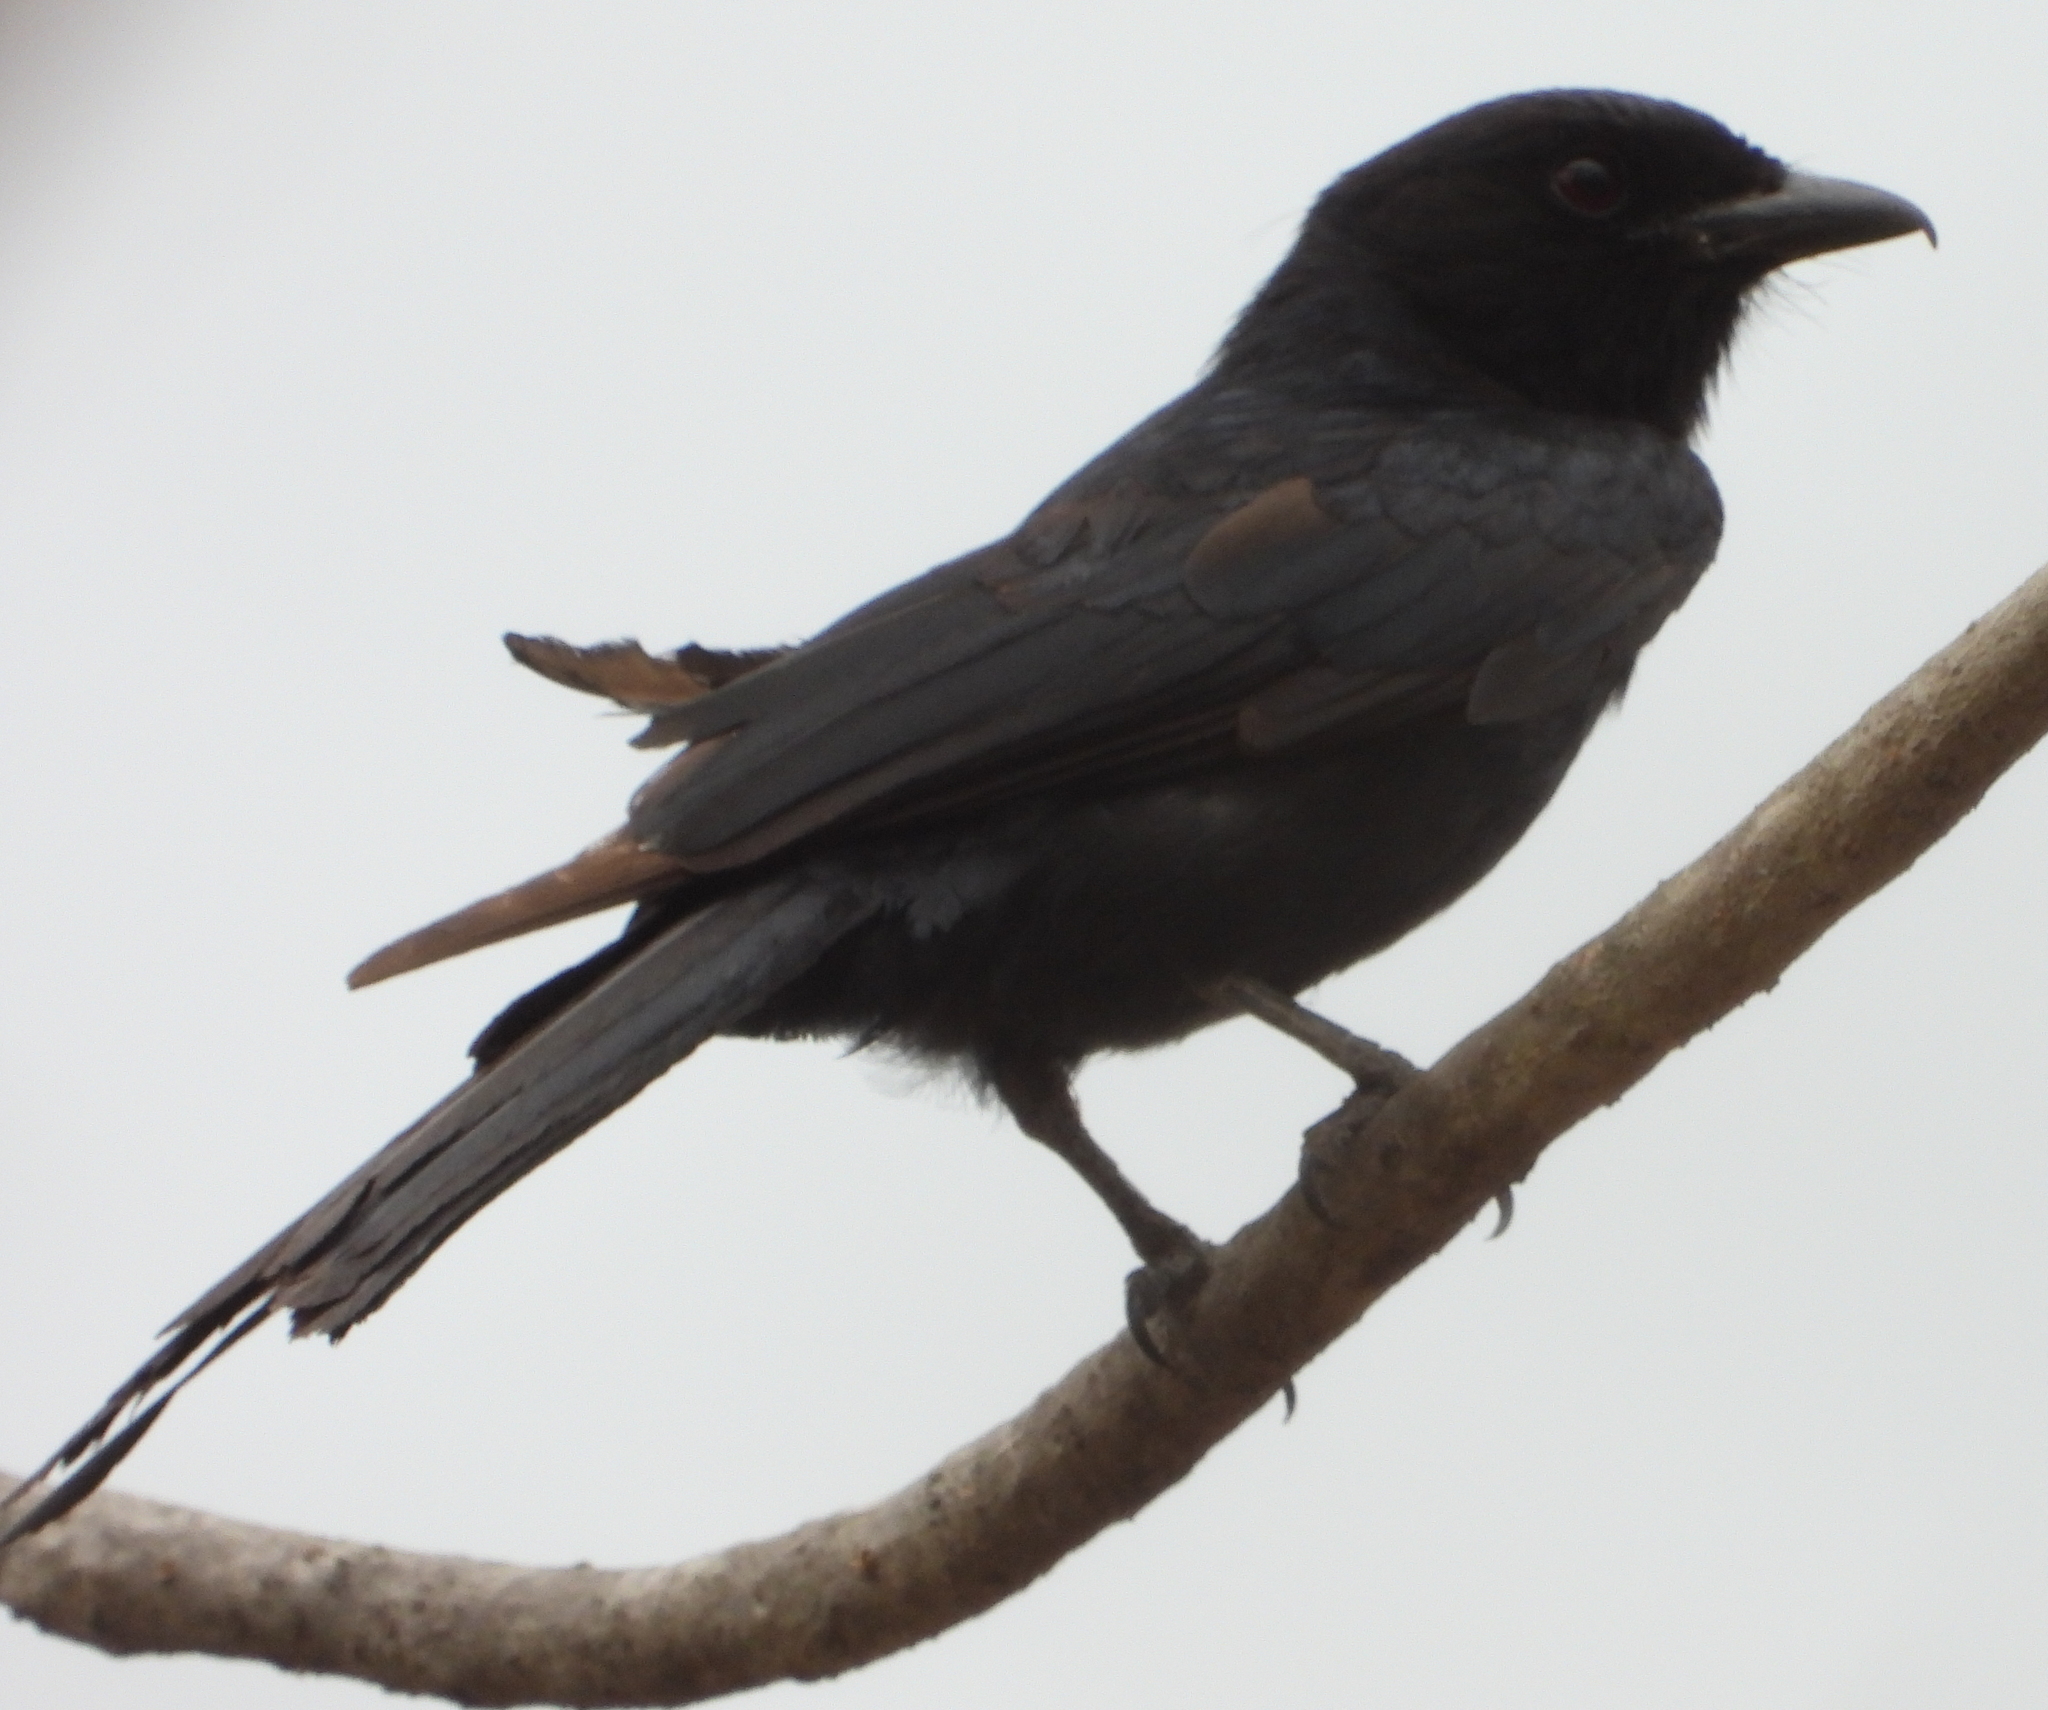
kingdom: Animalia
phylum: Chordata
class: Aves
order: Passeriformes
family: Dicruridae
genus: Dicrurus
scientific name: Dicrurus adsimilis
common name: Fork-tailed drongo
